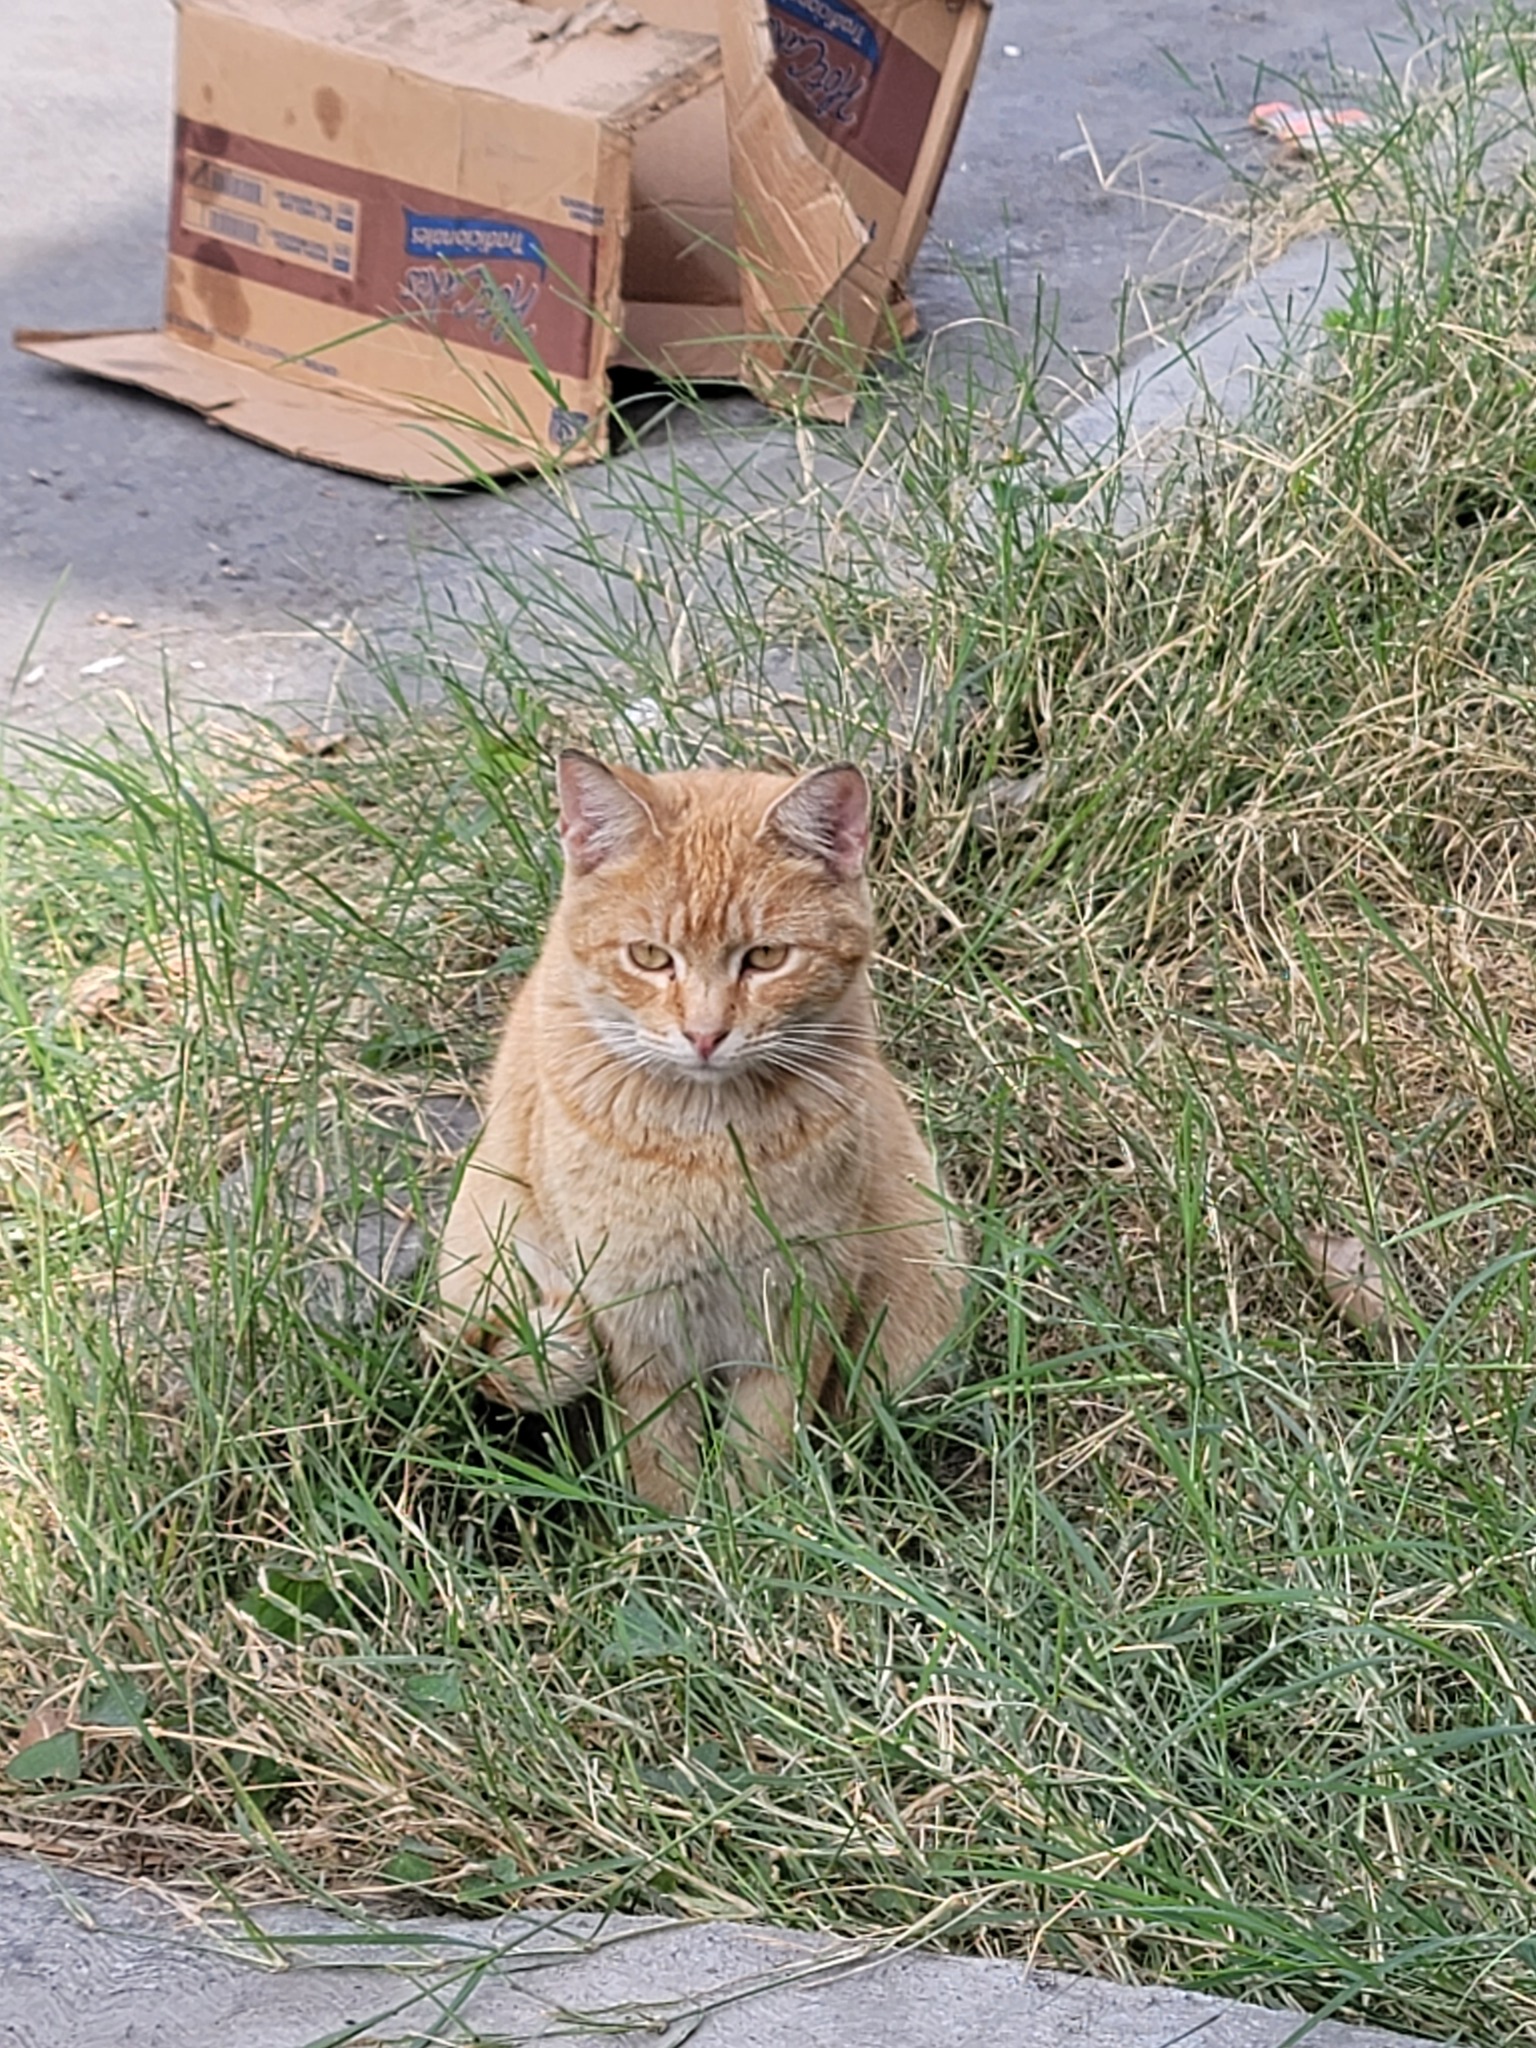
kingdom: Animalia
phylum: Chordata
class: Mammalia
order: Carnivora
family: Felidae
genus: Felis
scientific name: Felis catus
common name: Domestic cat
